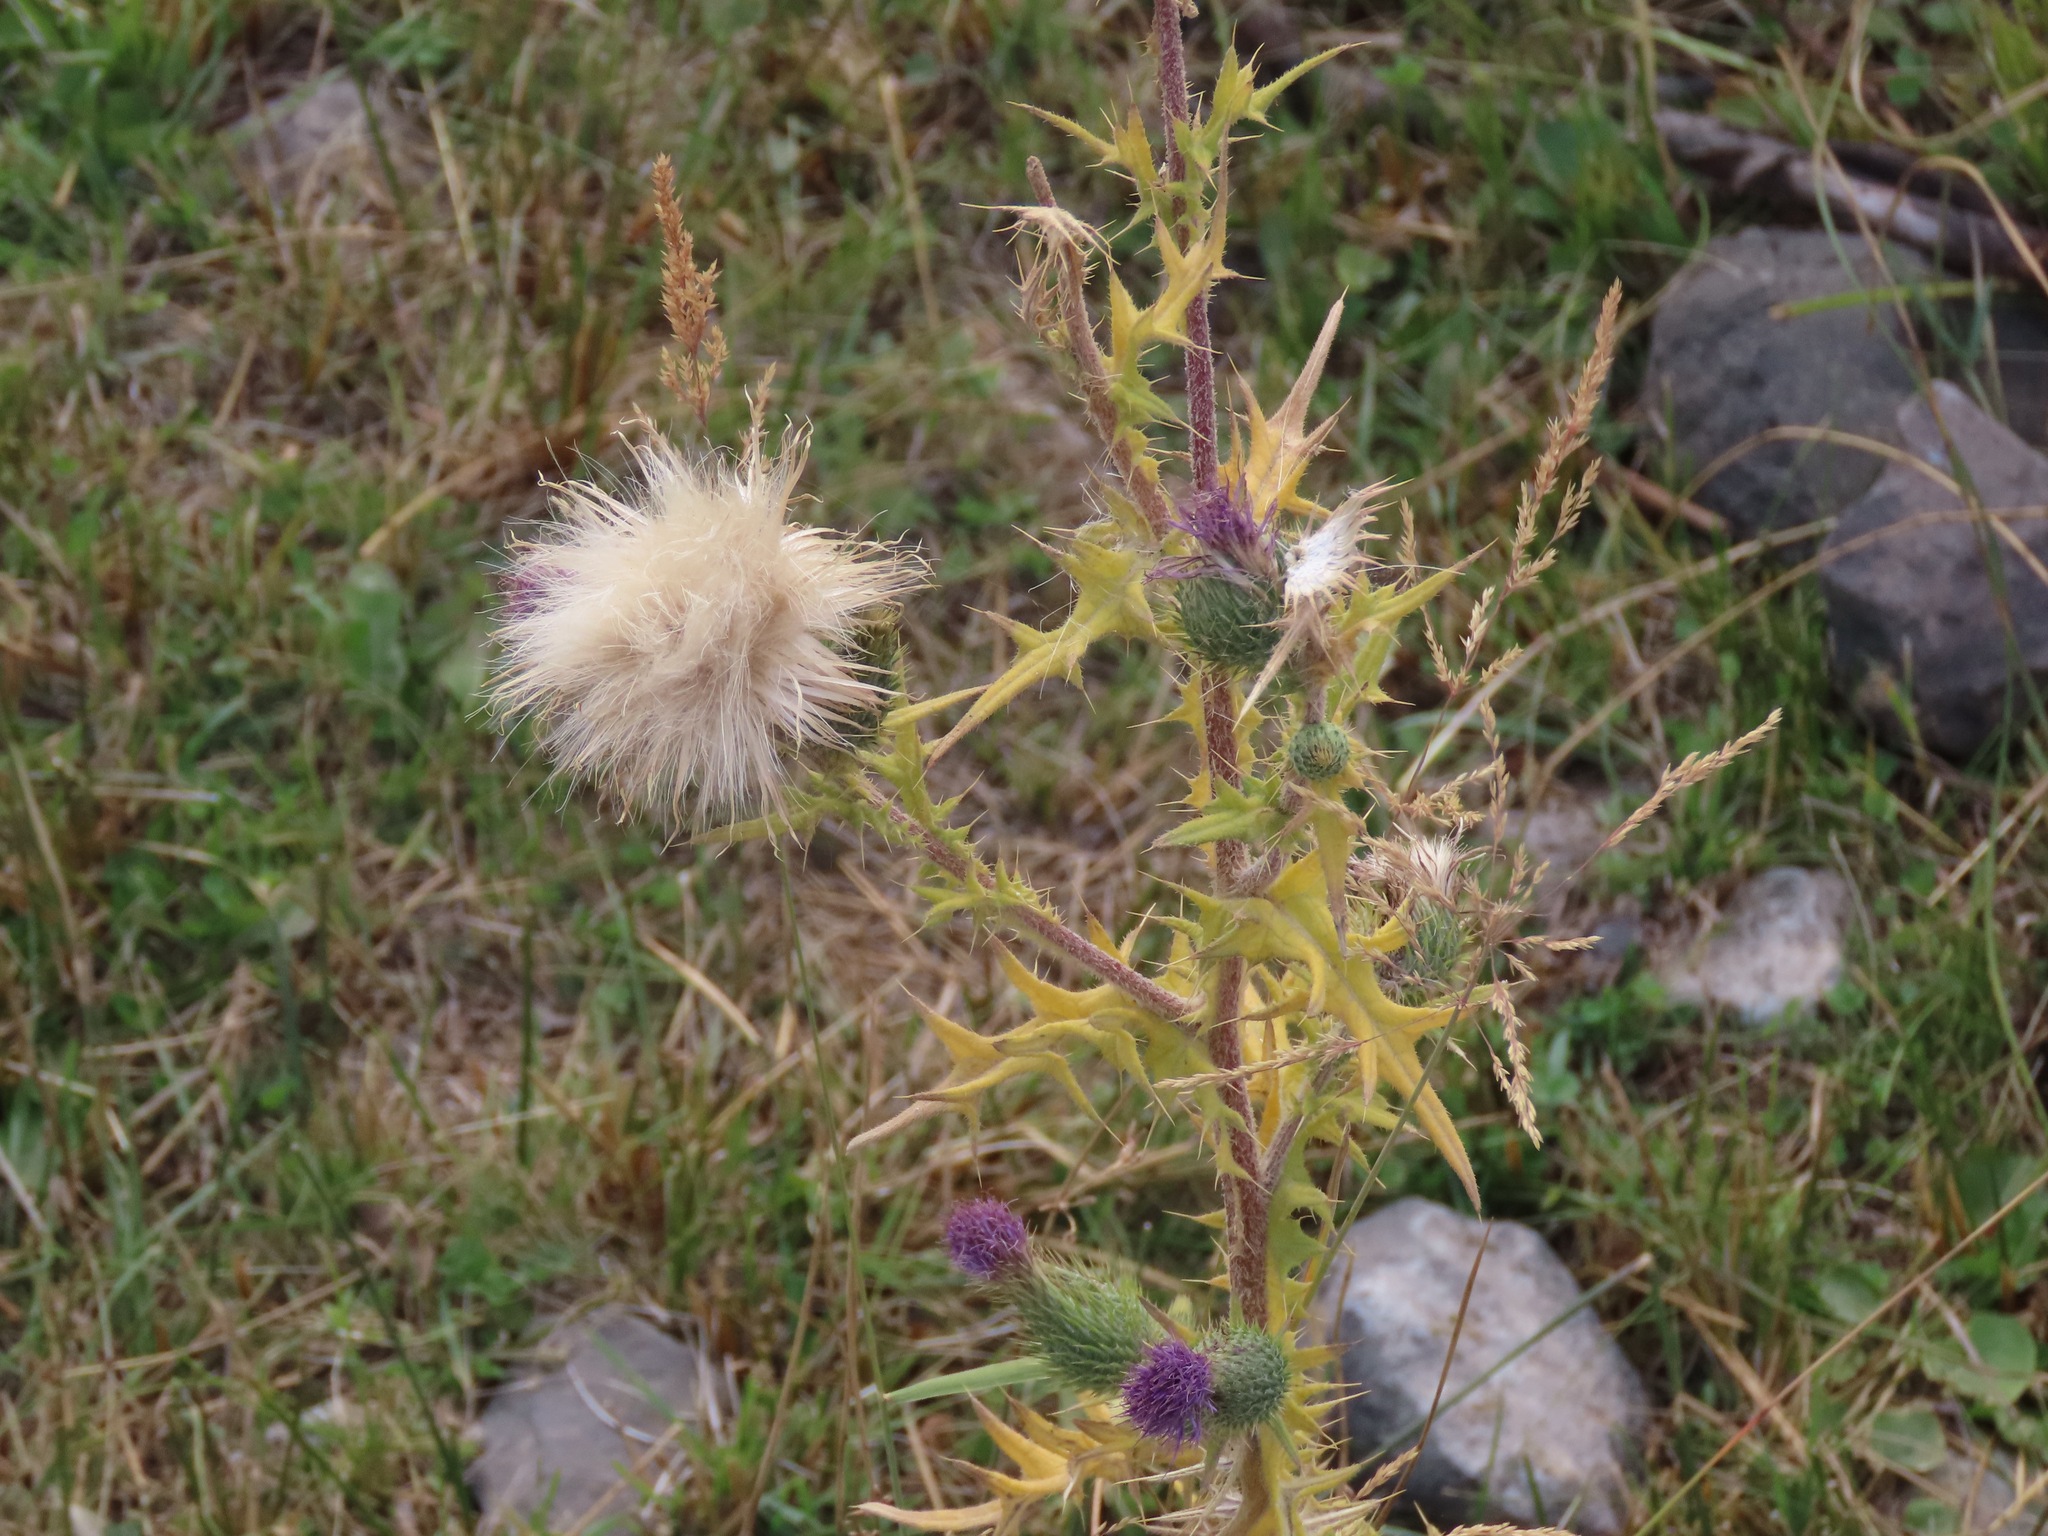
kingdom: Plantae
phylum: Tracheophyta
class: Magnoliopsida
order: Asterales
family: Asteraceae
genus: Cirsium
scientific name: Cirsium vulgare
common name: Bull thistle
